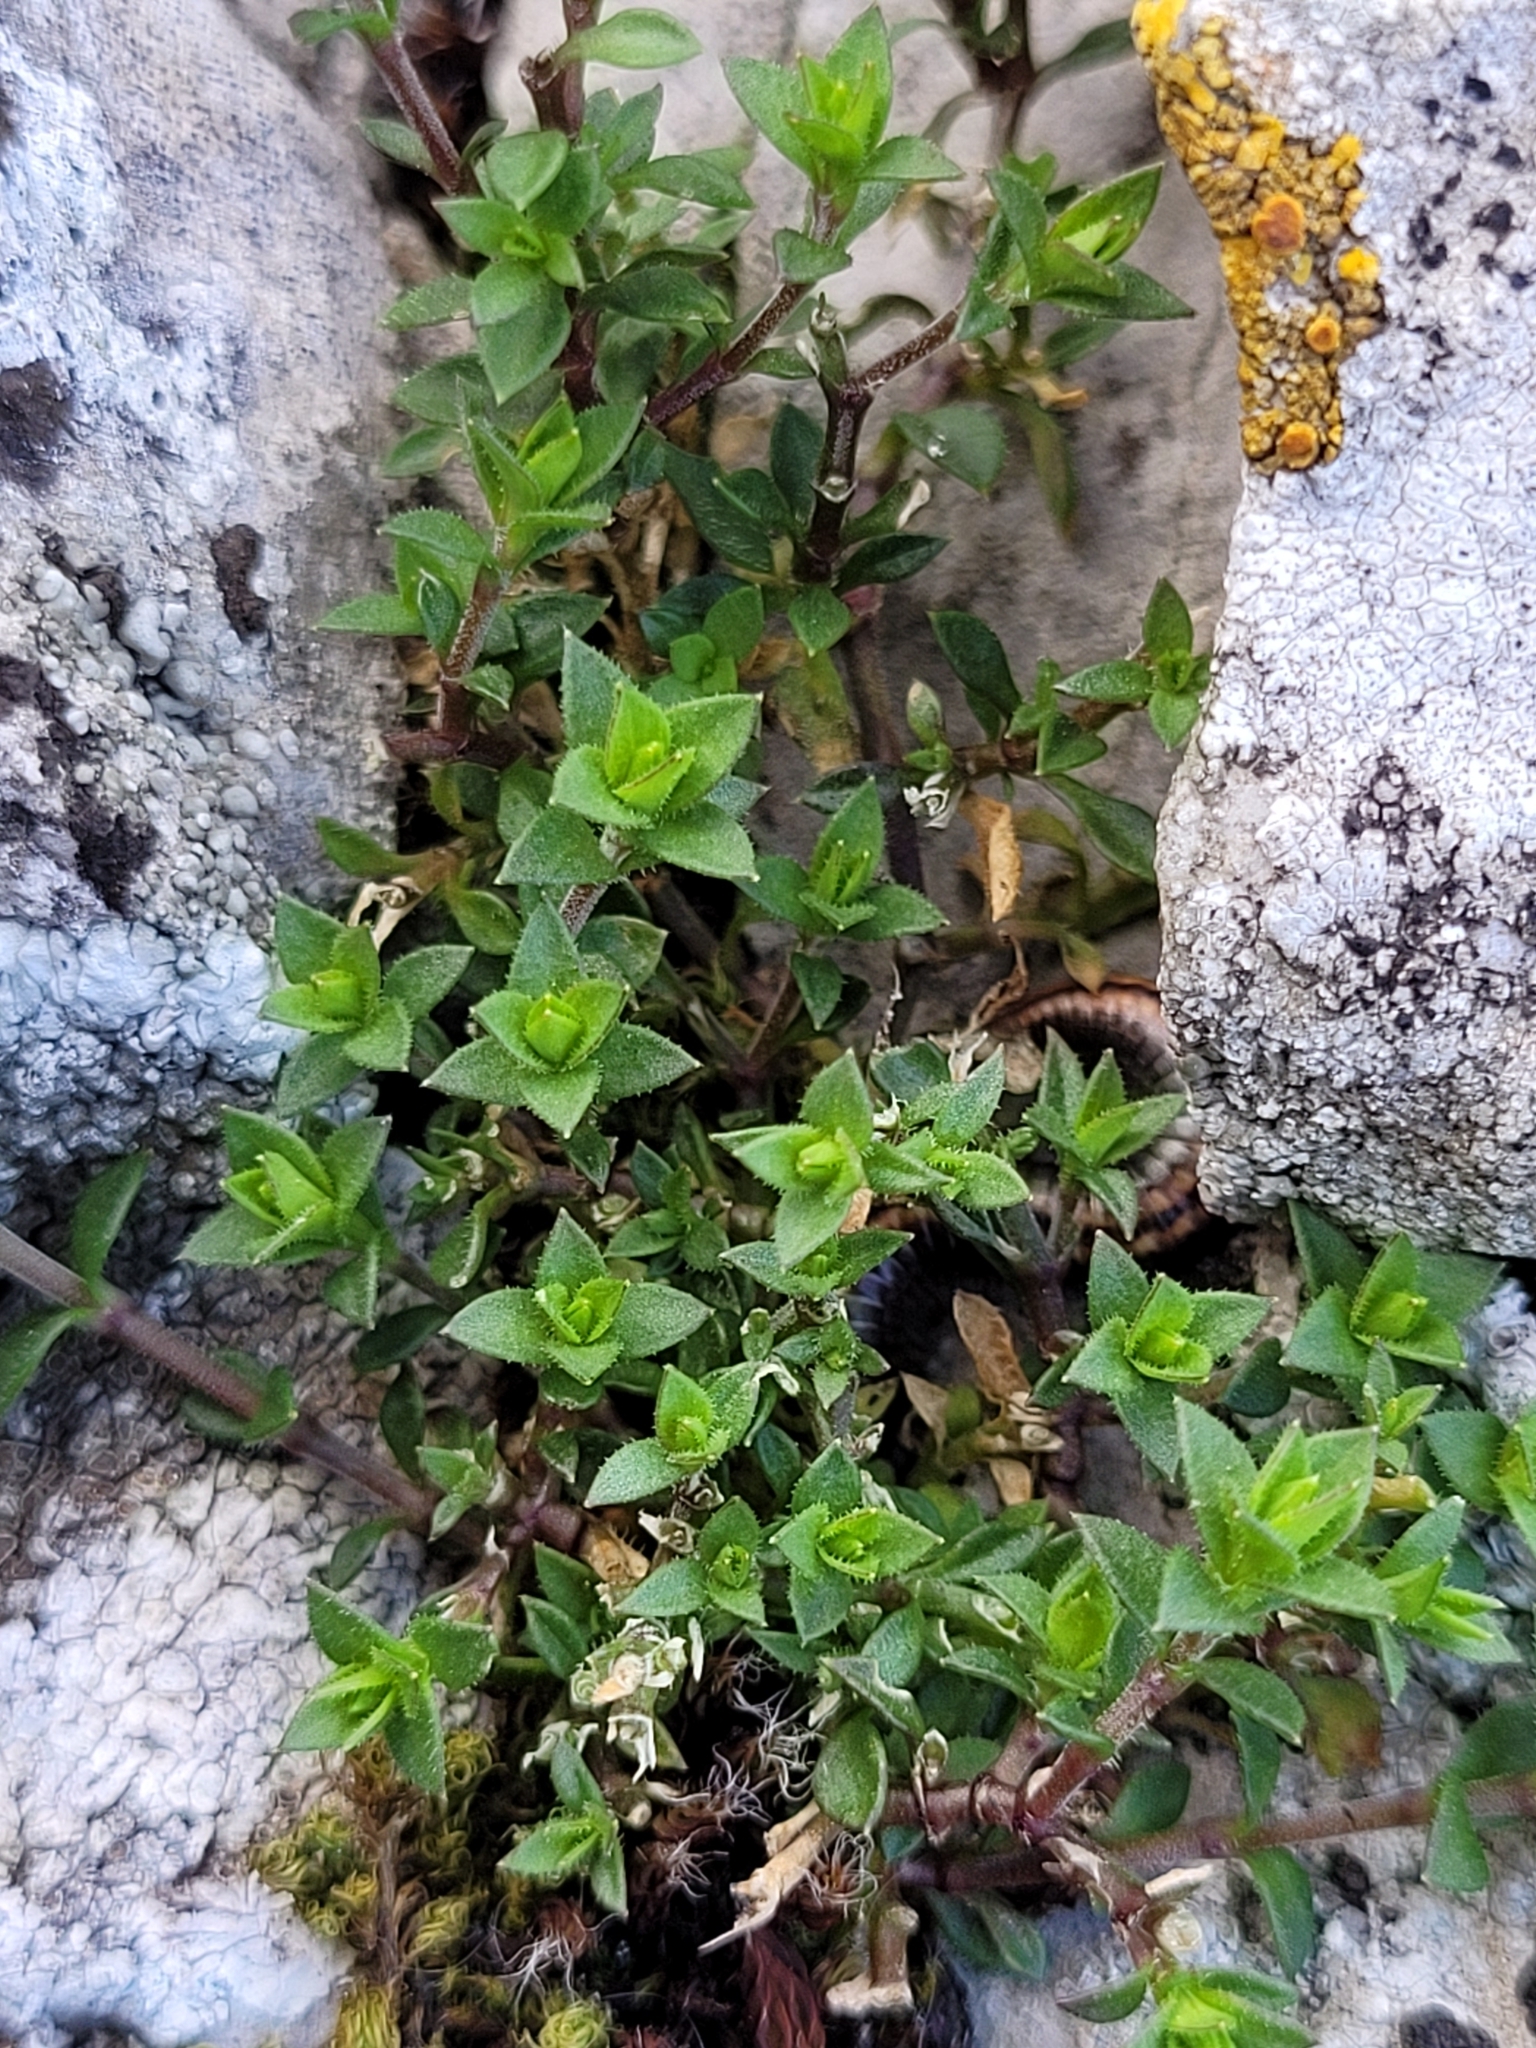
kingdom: Plantae
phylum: Tracheophyta
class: Magnoliopsida
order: Caryophyllales
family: Caryophyllaceae
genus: Arenaria
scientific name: Arenaria serpyllifolia
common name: Thyme-leaved sandwort
